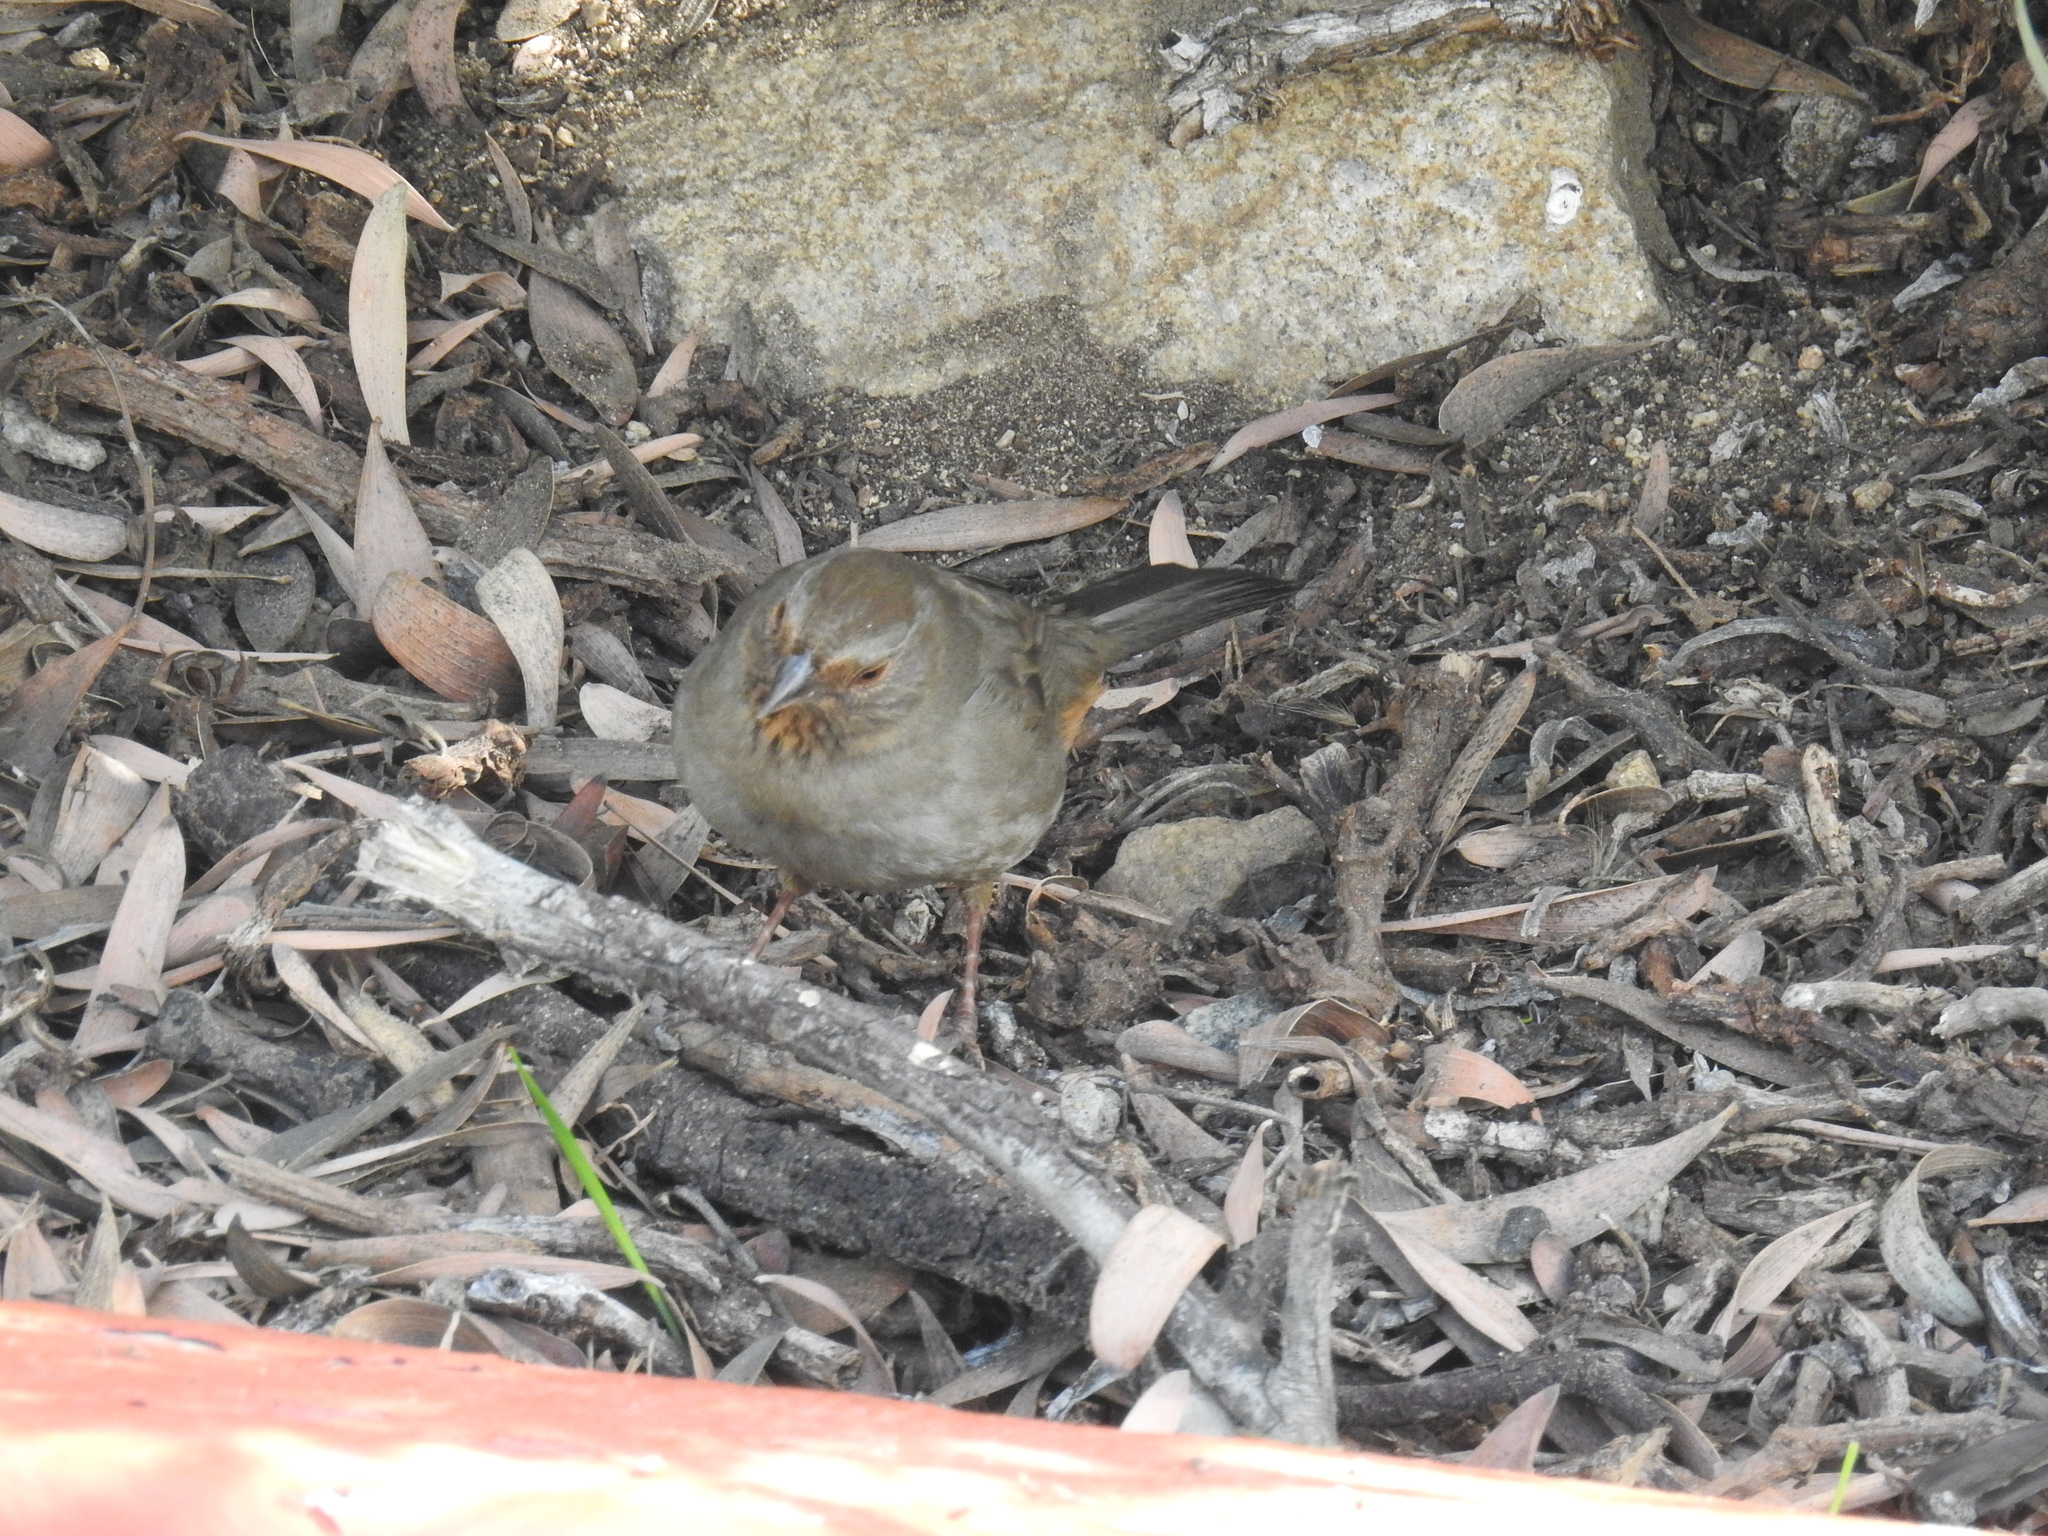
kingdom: Animalia
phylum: Chordata
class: Aves
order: Passeriformes
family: Passerellidae
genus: Melozone
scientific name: Melozone crissalis
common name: California towhee
